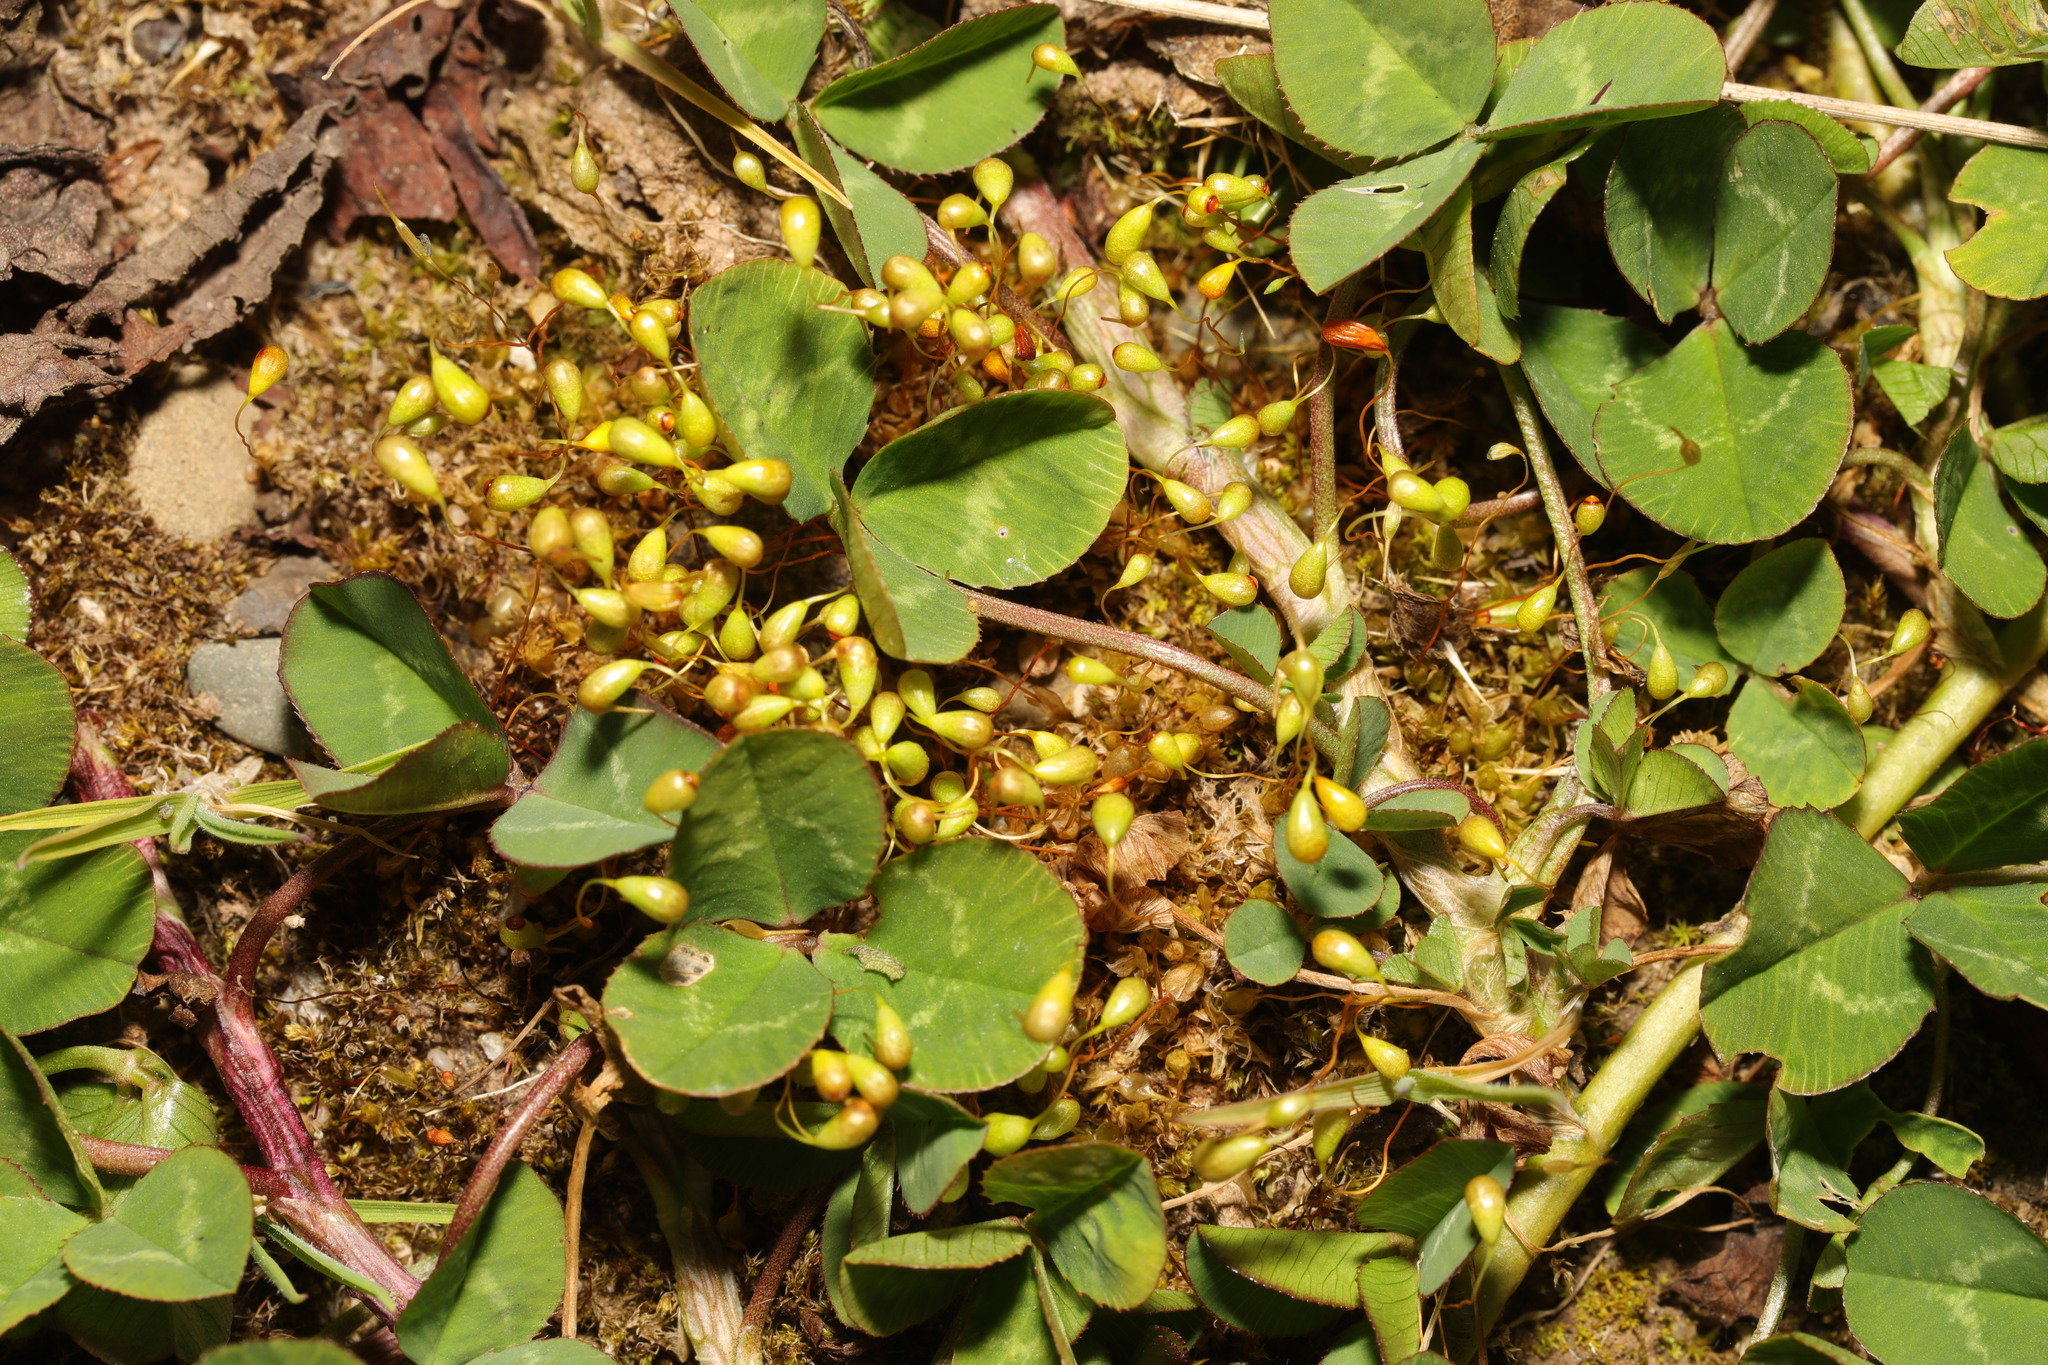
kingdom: Plantae
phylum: Bryophyta
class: Bryopsida
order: Funariales
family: Funariaceae
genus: Funaria
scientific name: Funaria hygrometrica
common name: Common cord moss
